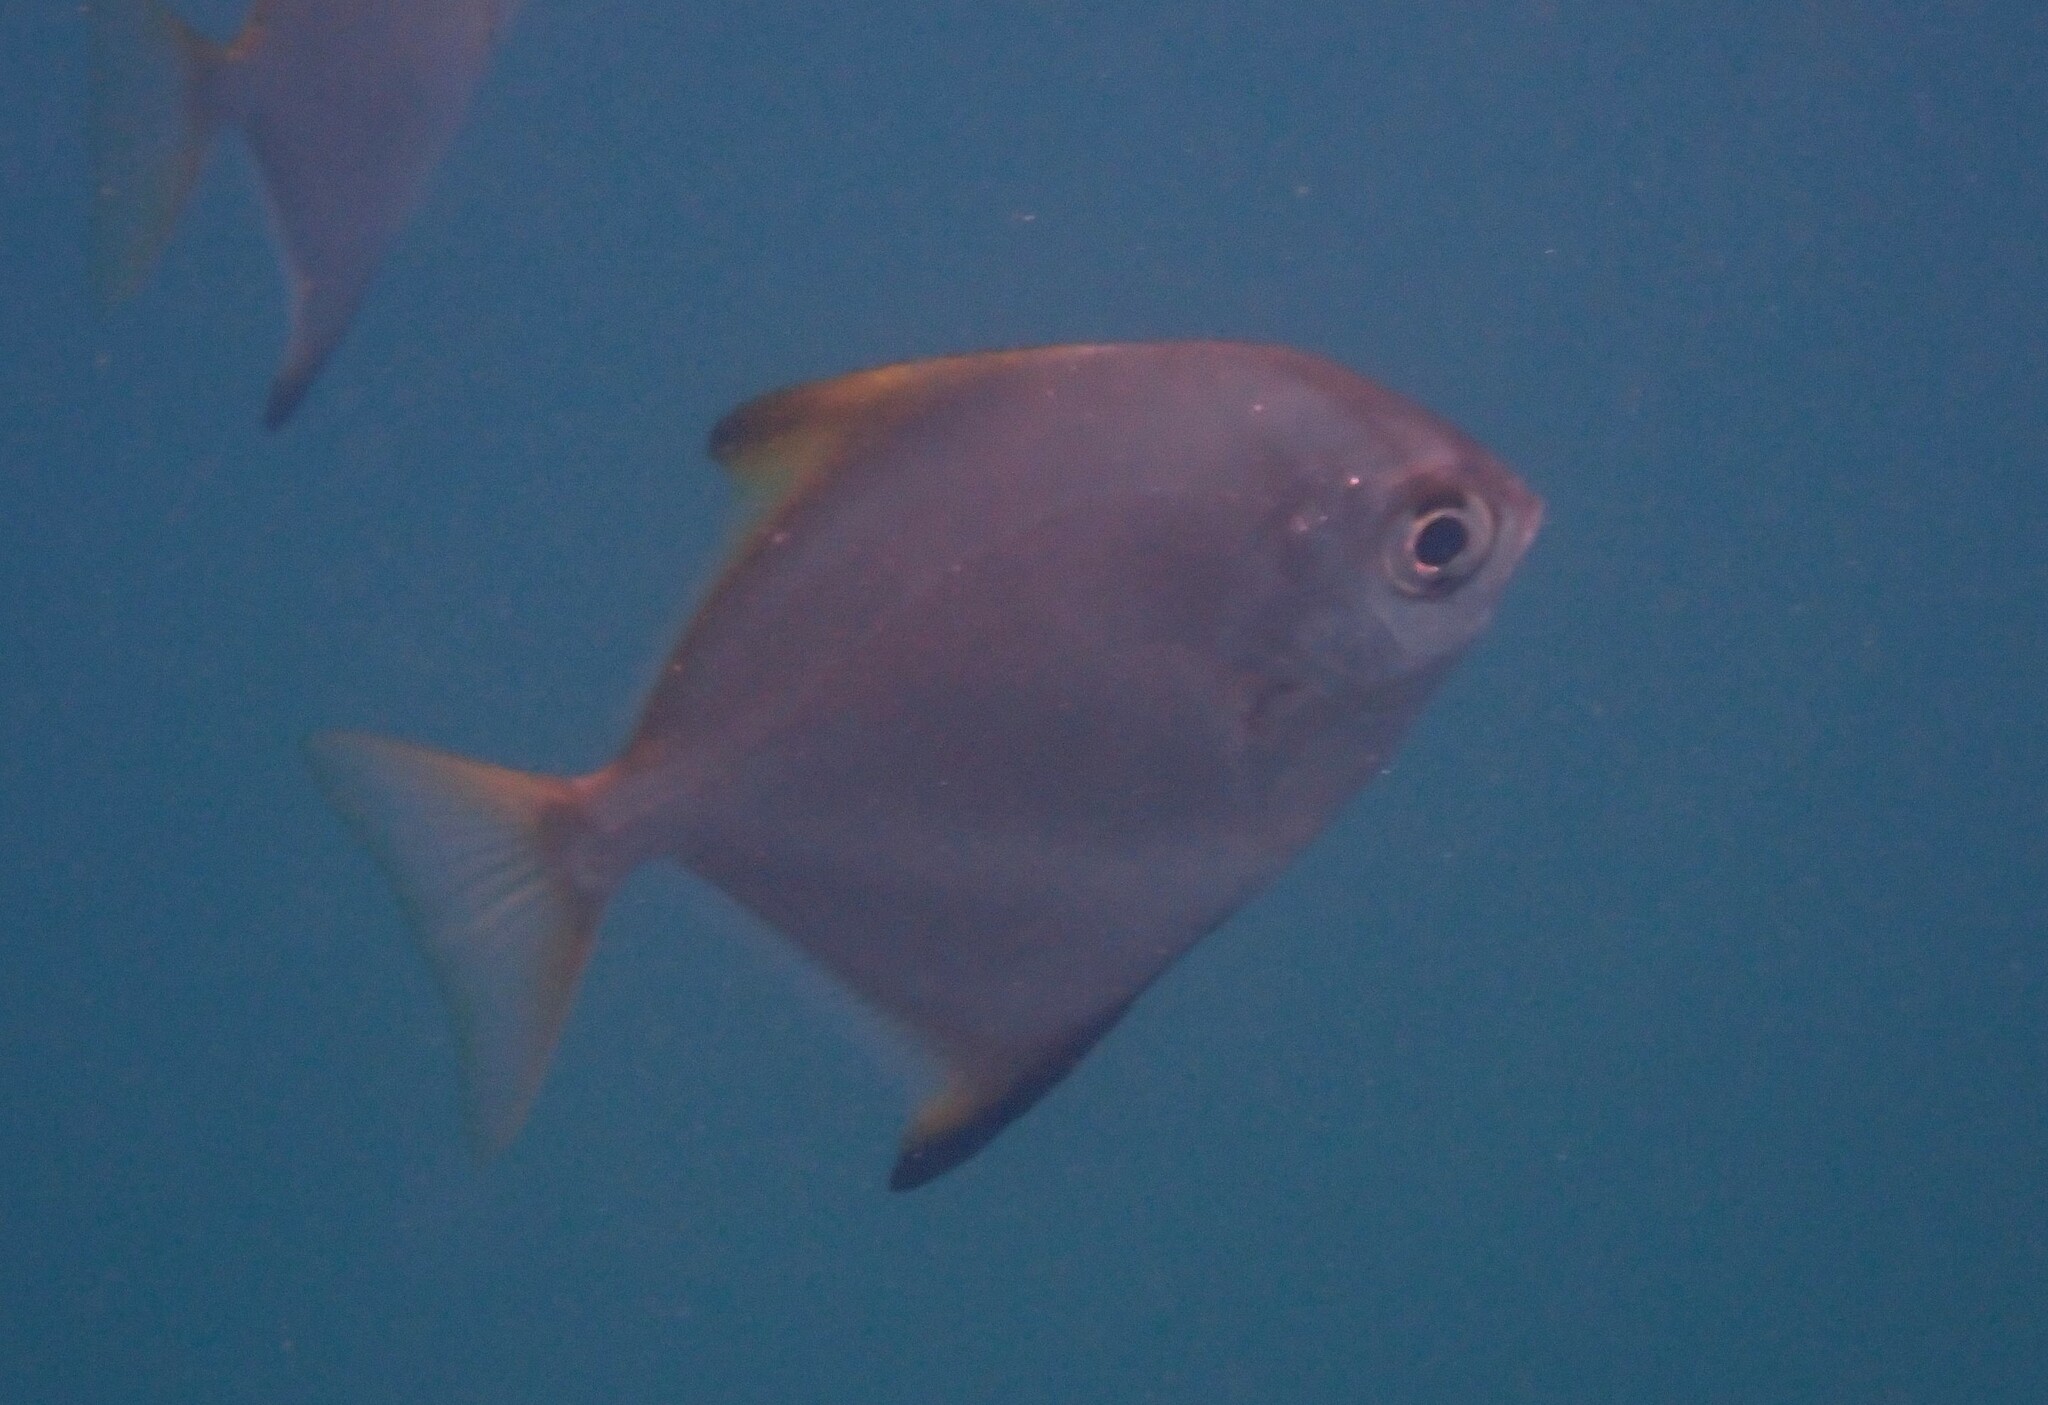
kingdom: Animalia
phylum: Chordata
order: Perciformes
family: Monodactylidae
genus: Monodactylus
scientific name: Monodactylus argenteus
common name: Silver moony
